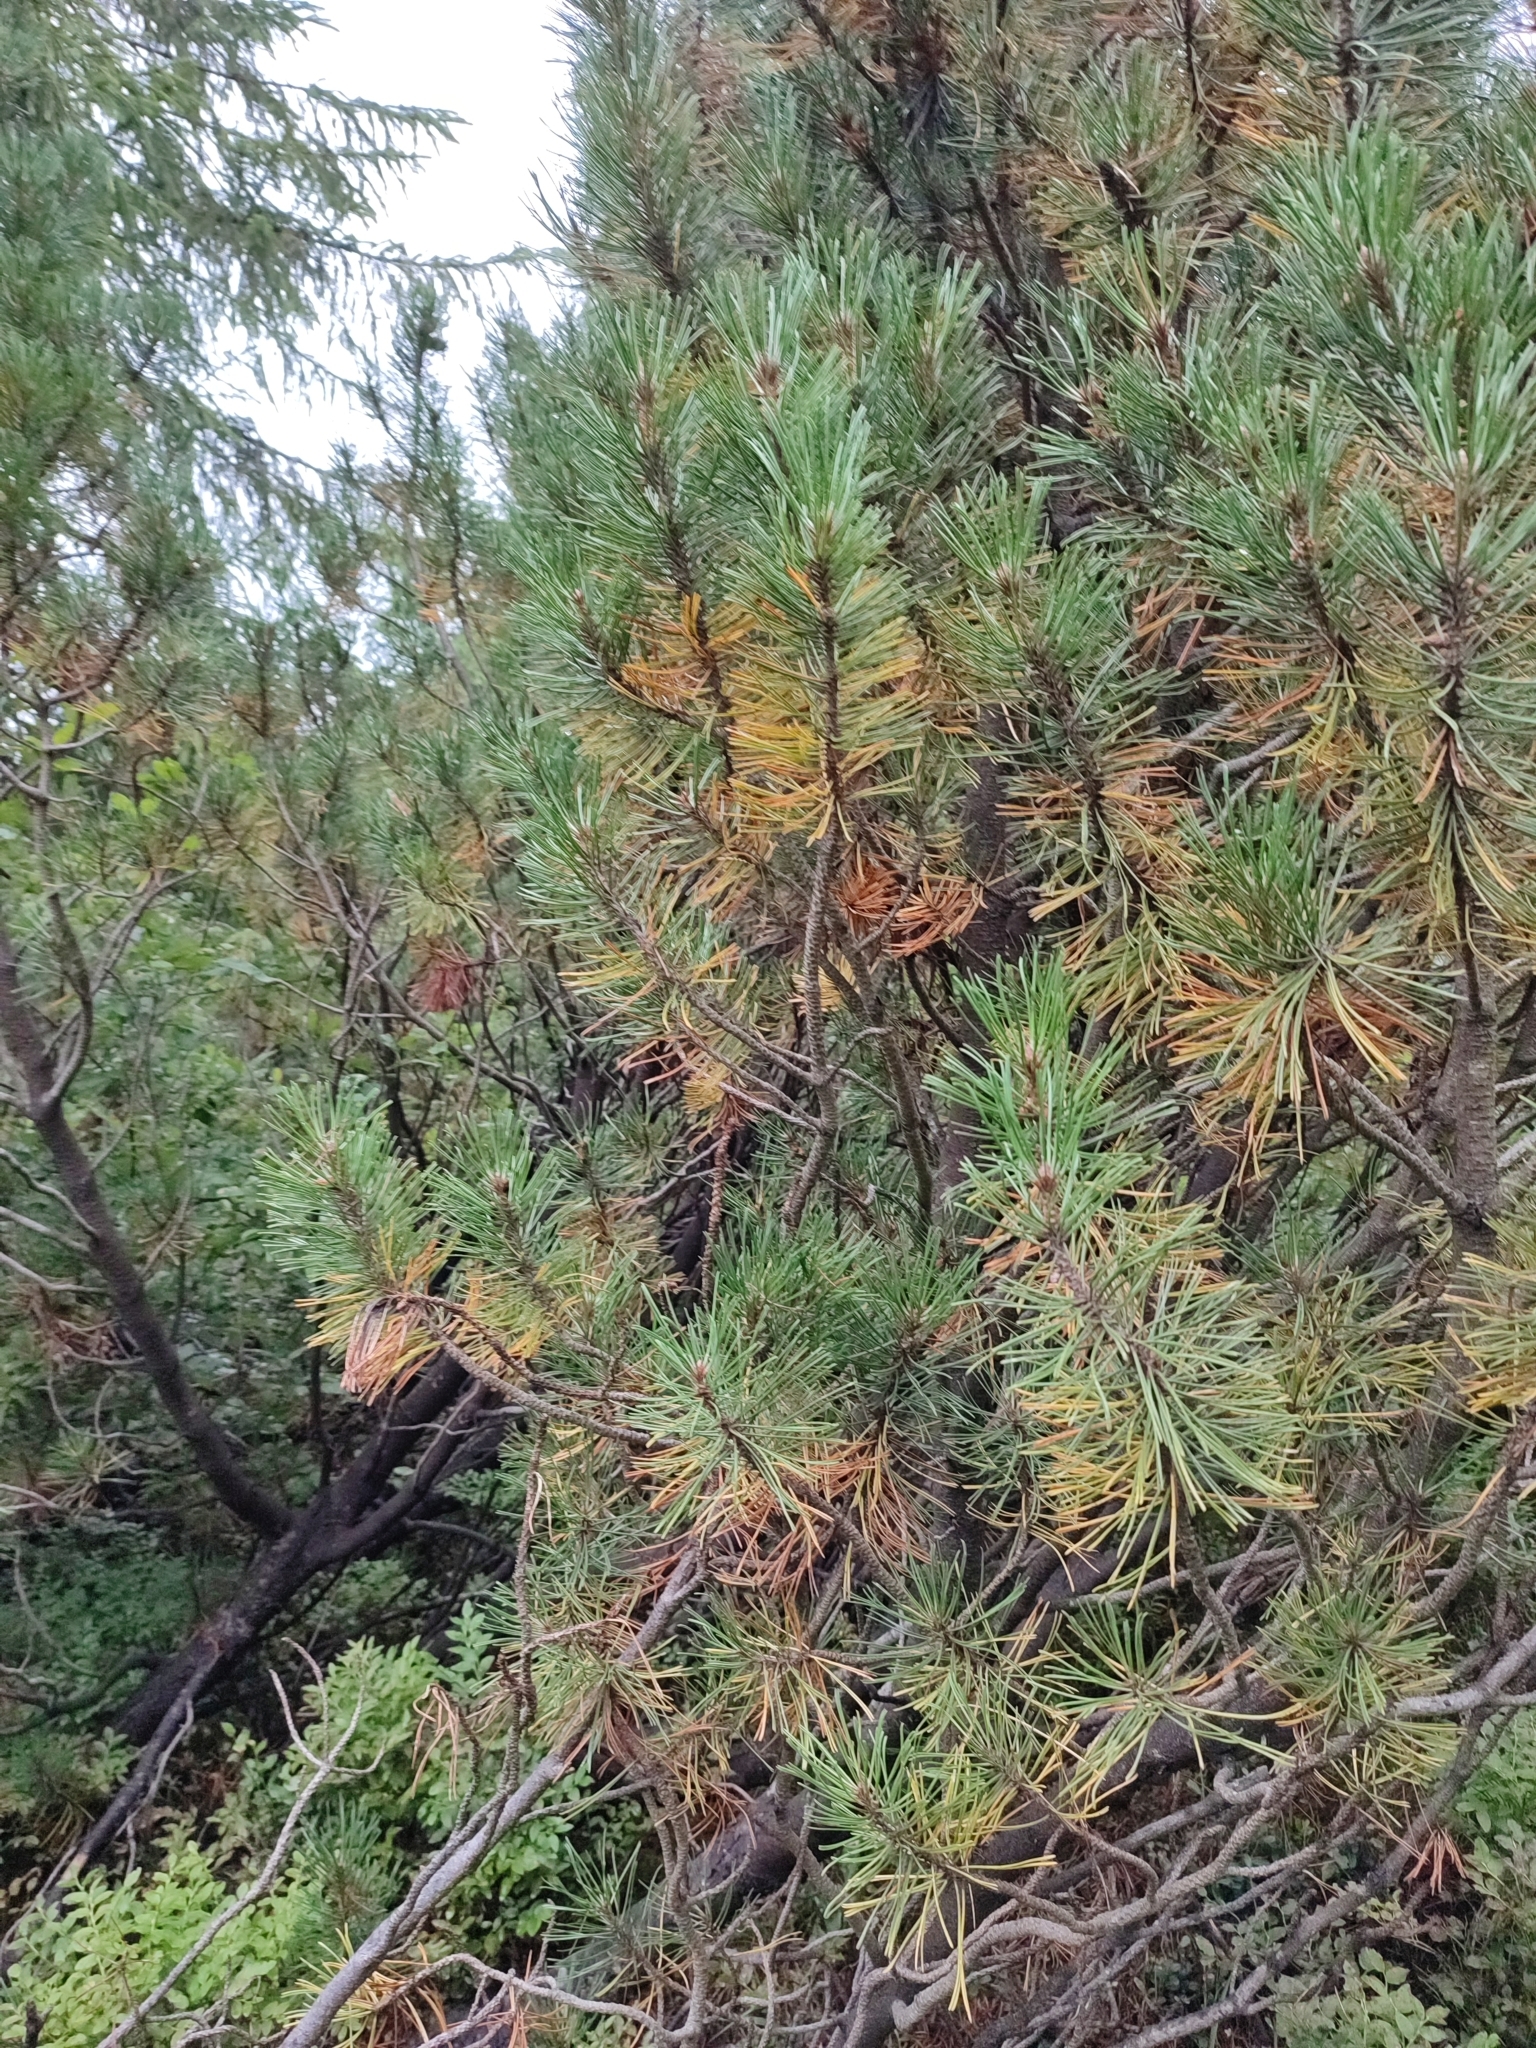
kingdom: Plantae
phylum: Tracheophyta
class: Pinopsida
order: Pinales
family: Pinaceae
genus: Pinus
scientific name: Pinus mugo
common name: Mugo pine
